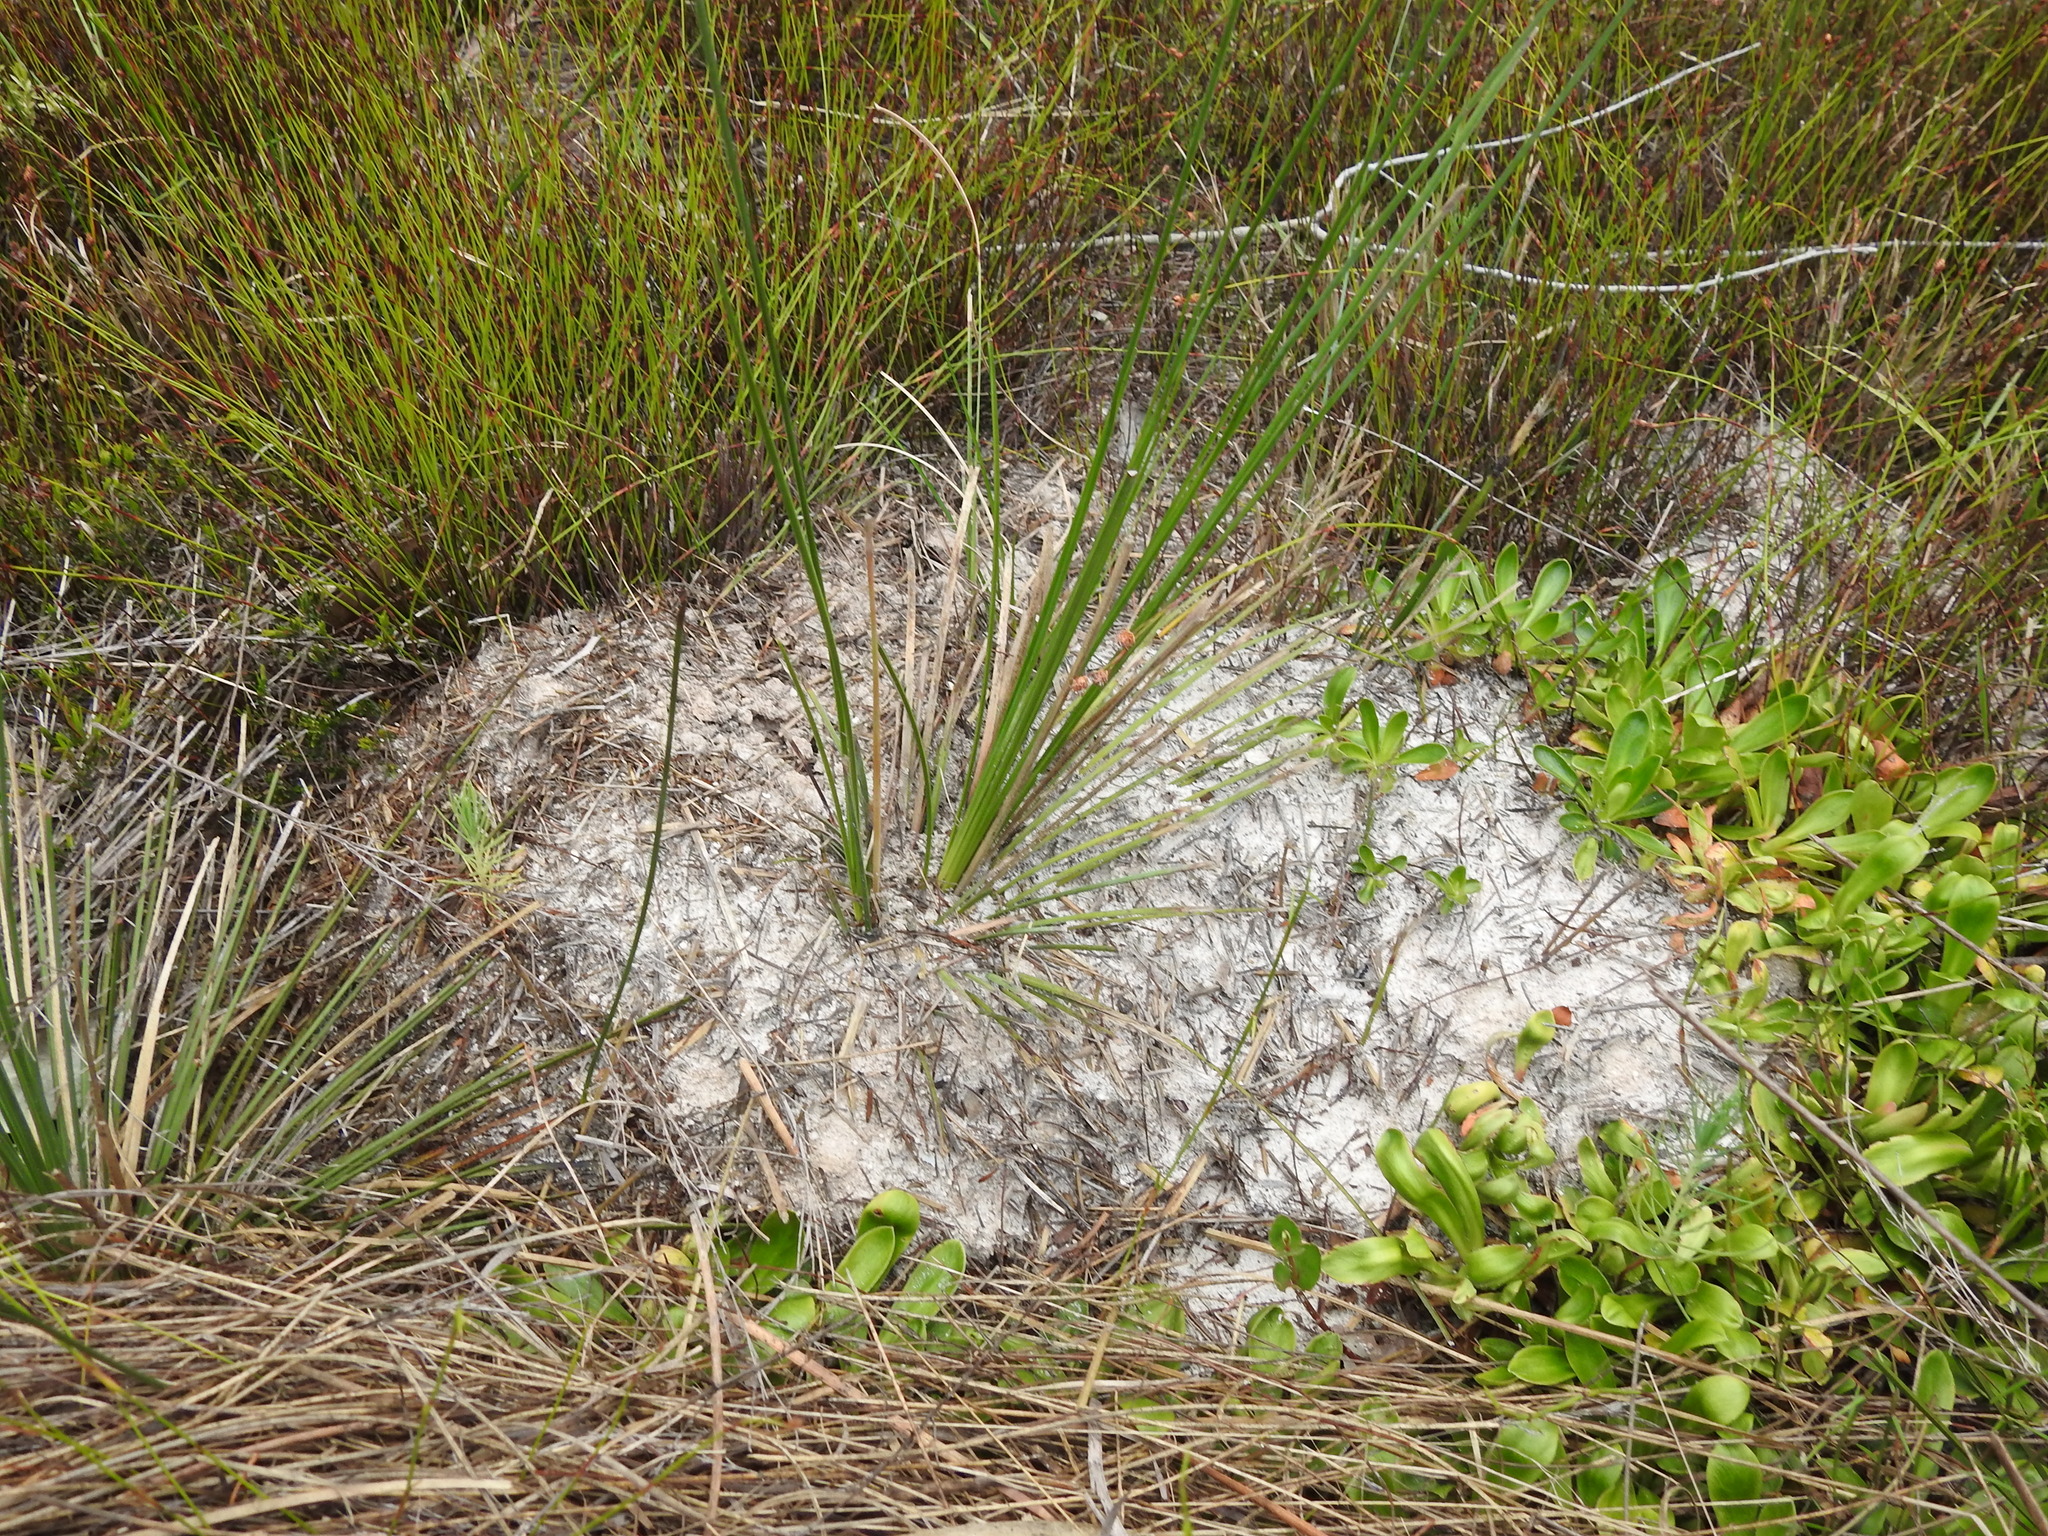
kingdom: Animalia
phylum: Arthropoda
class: Insecta
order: Hymenoptera
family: Formicidae
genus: Camponotus
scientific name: Camponotus intrepidus
